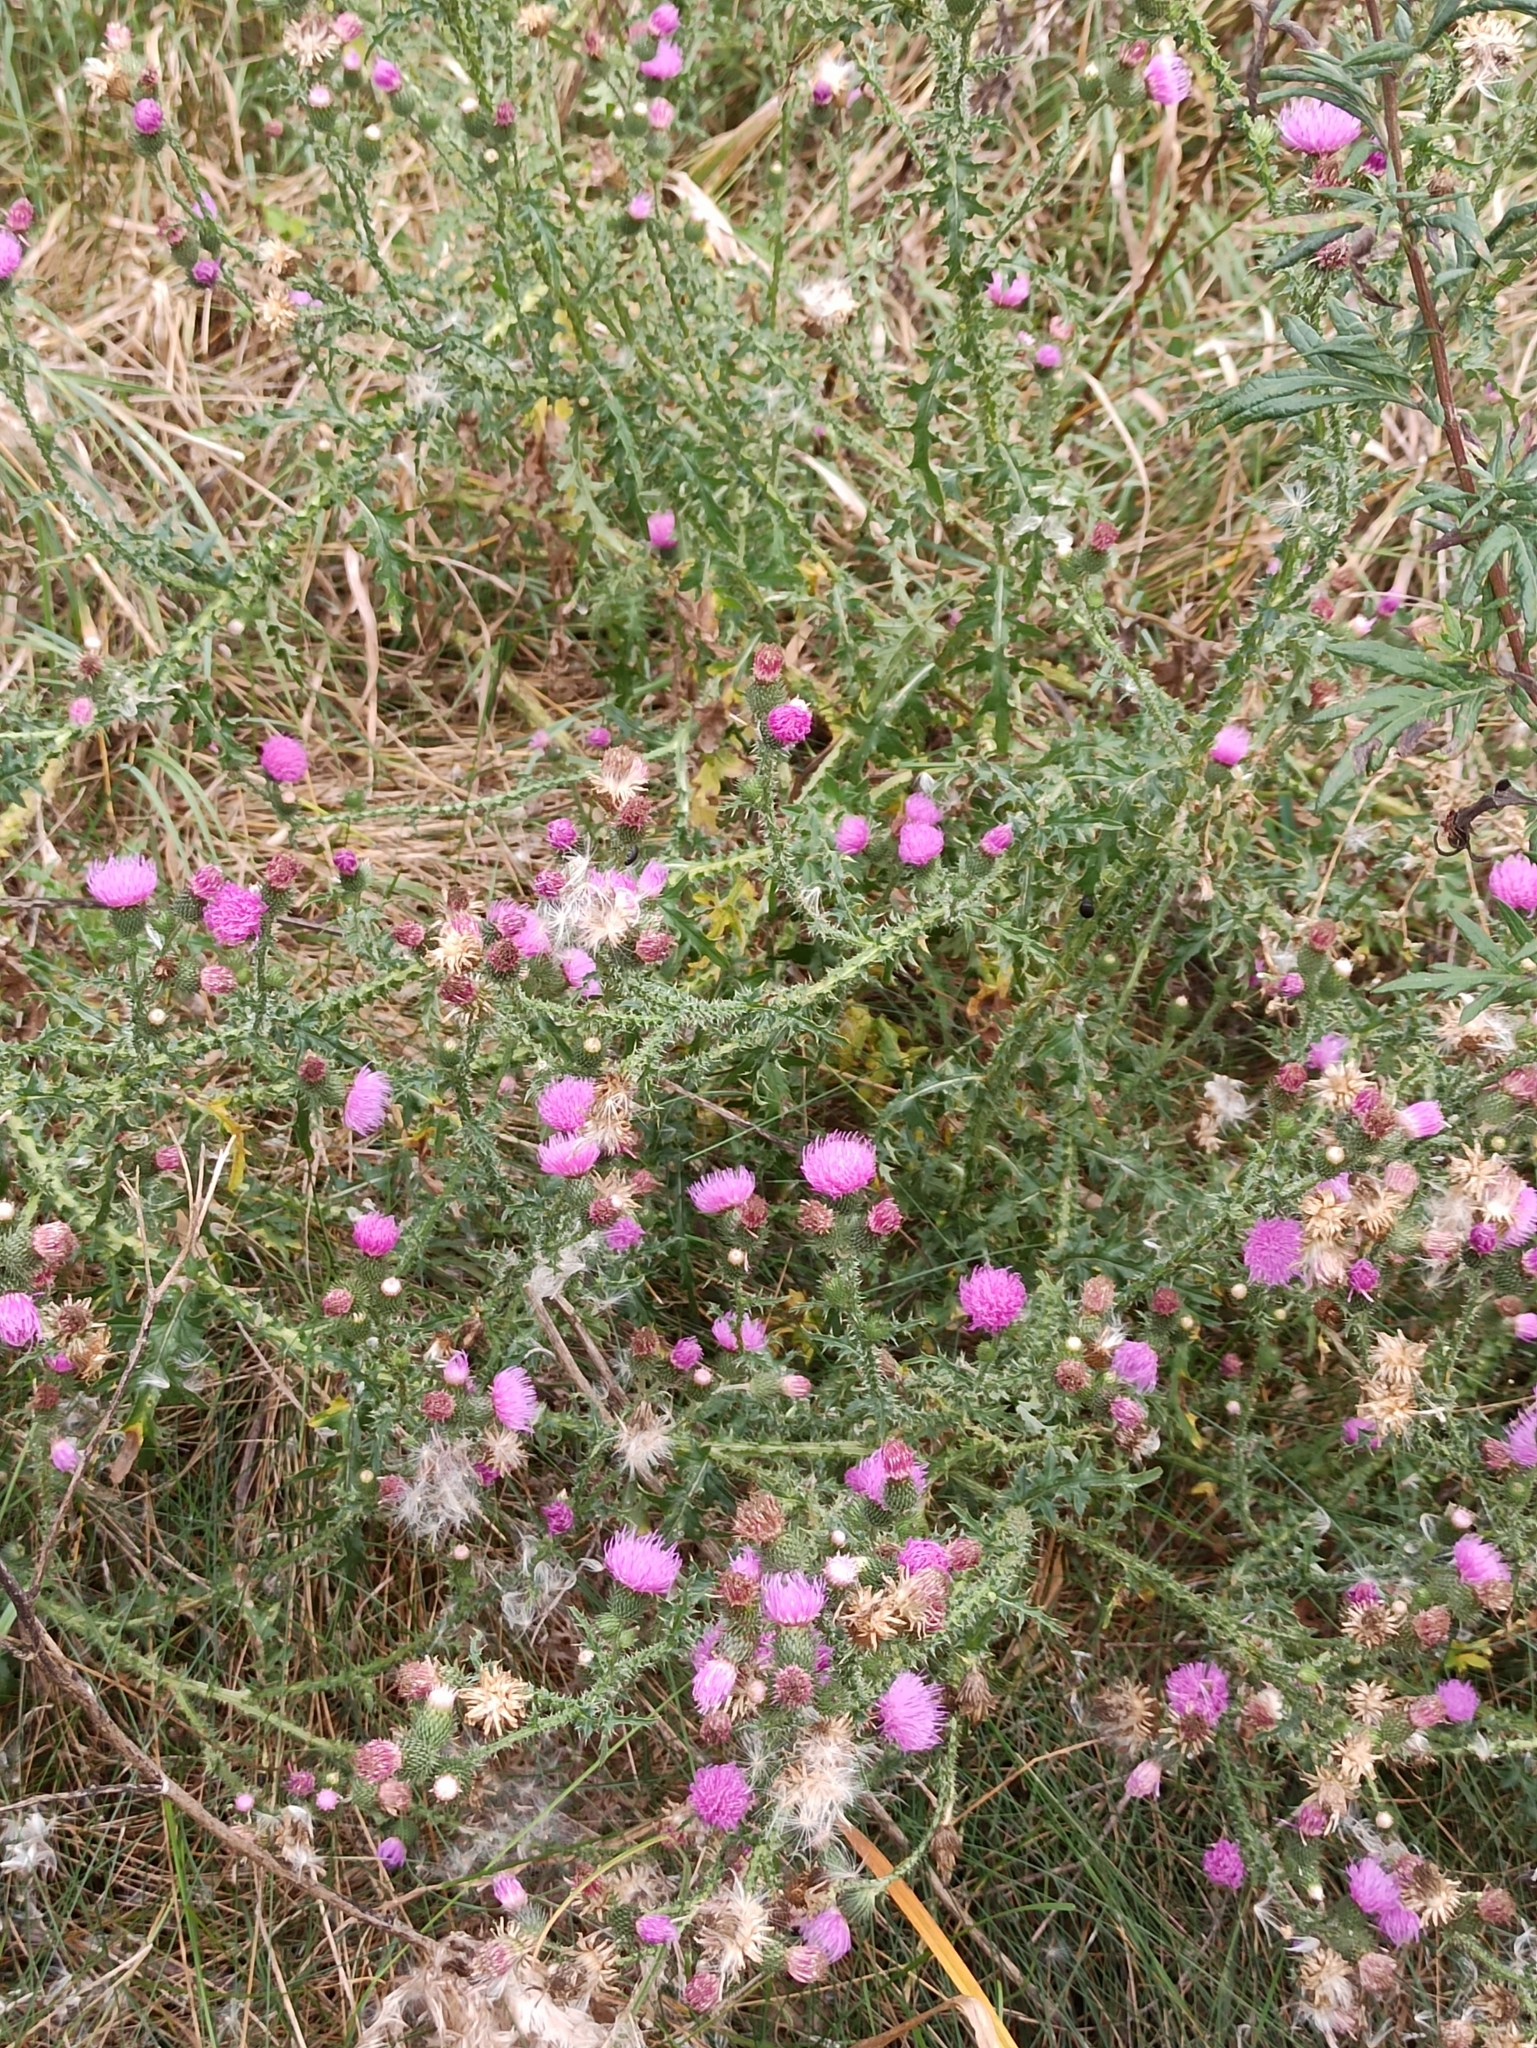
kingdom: Plantae
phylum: Tracheophyta
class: Magnoliopsida
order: Asterales
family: Asteraceae
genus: Carduus
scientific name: Carduus acanthoides
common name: Plumeless thistle
